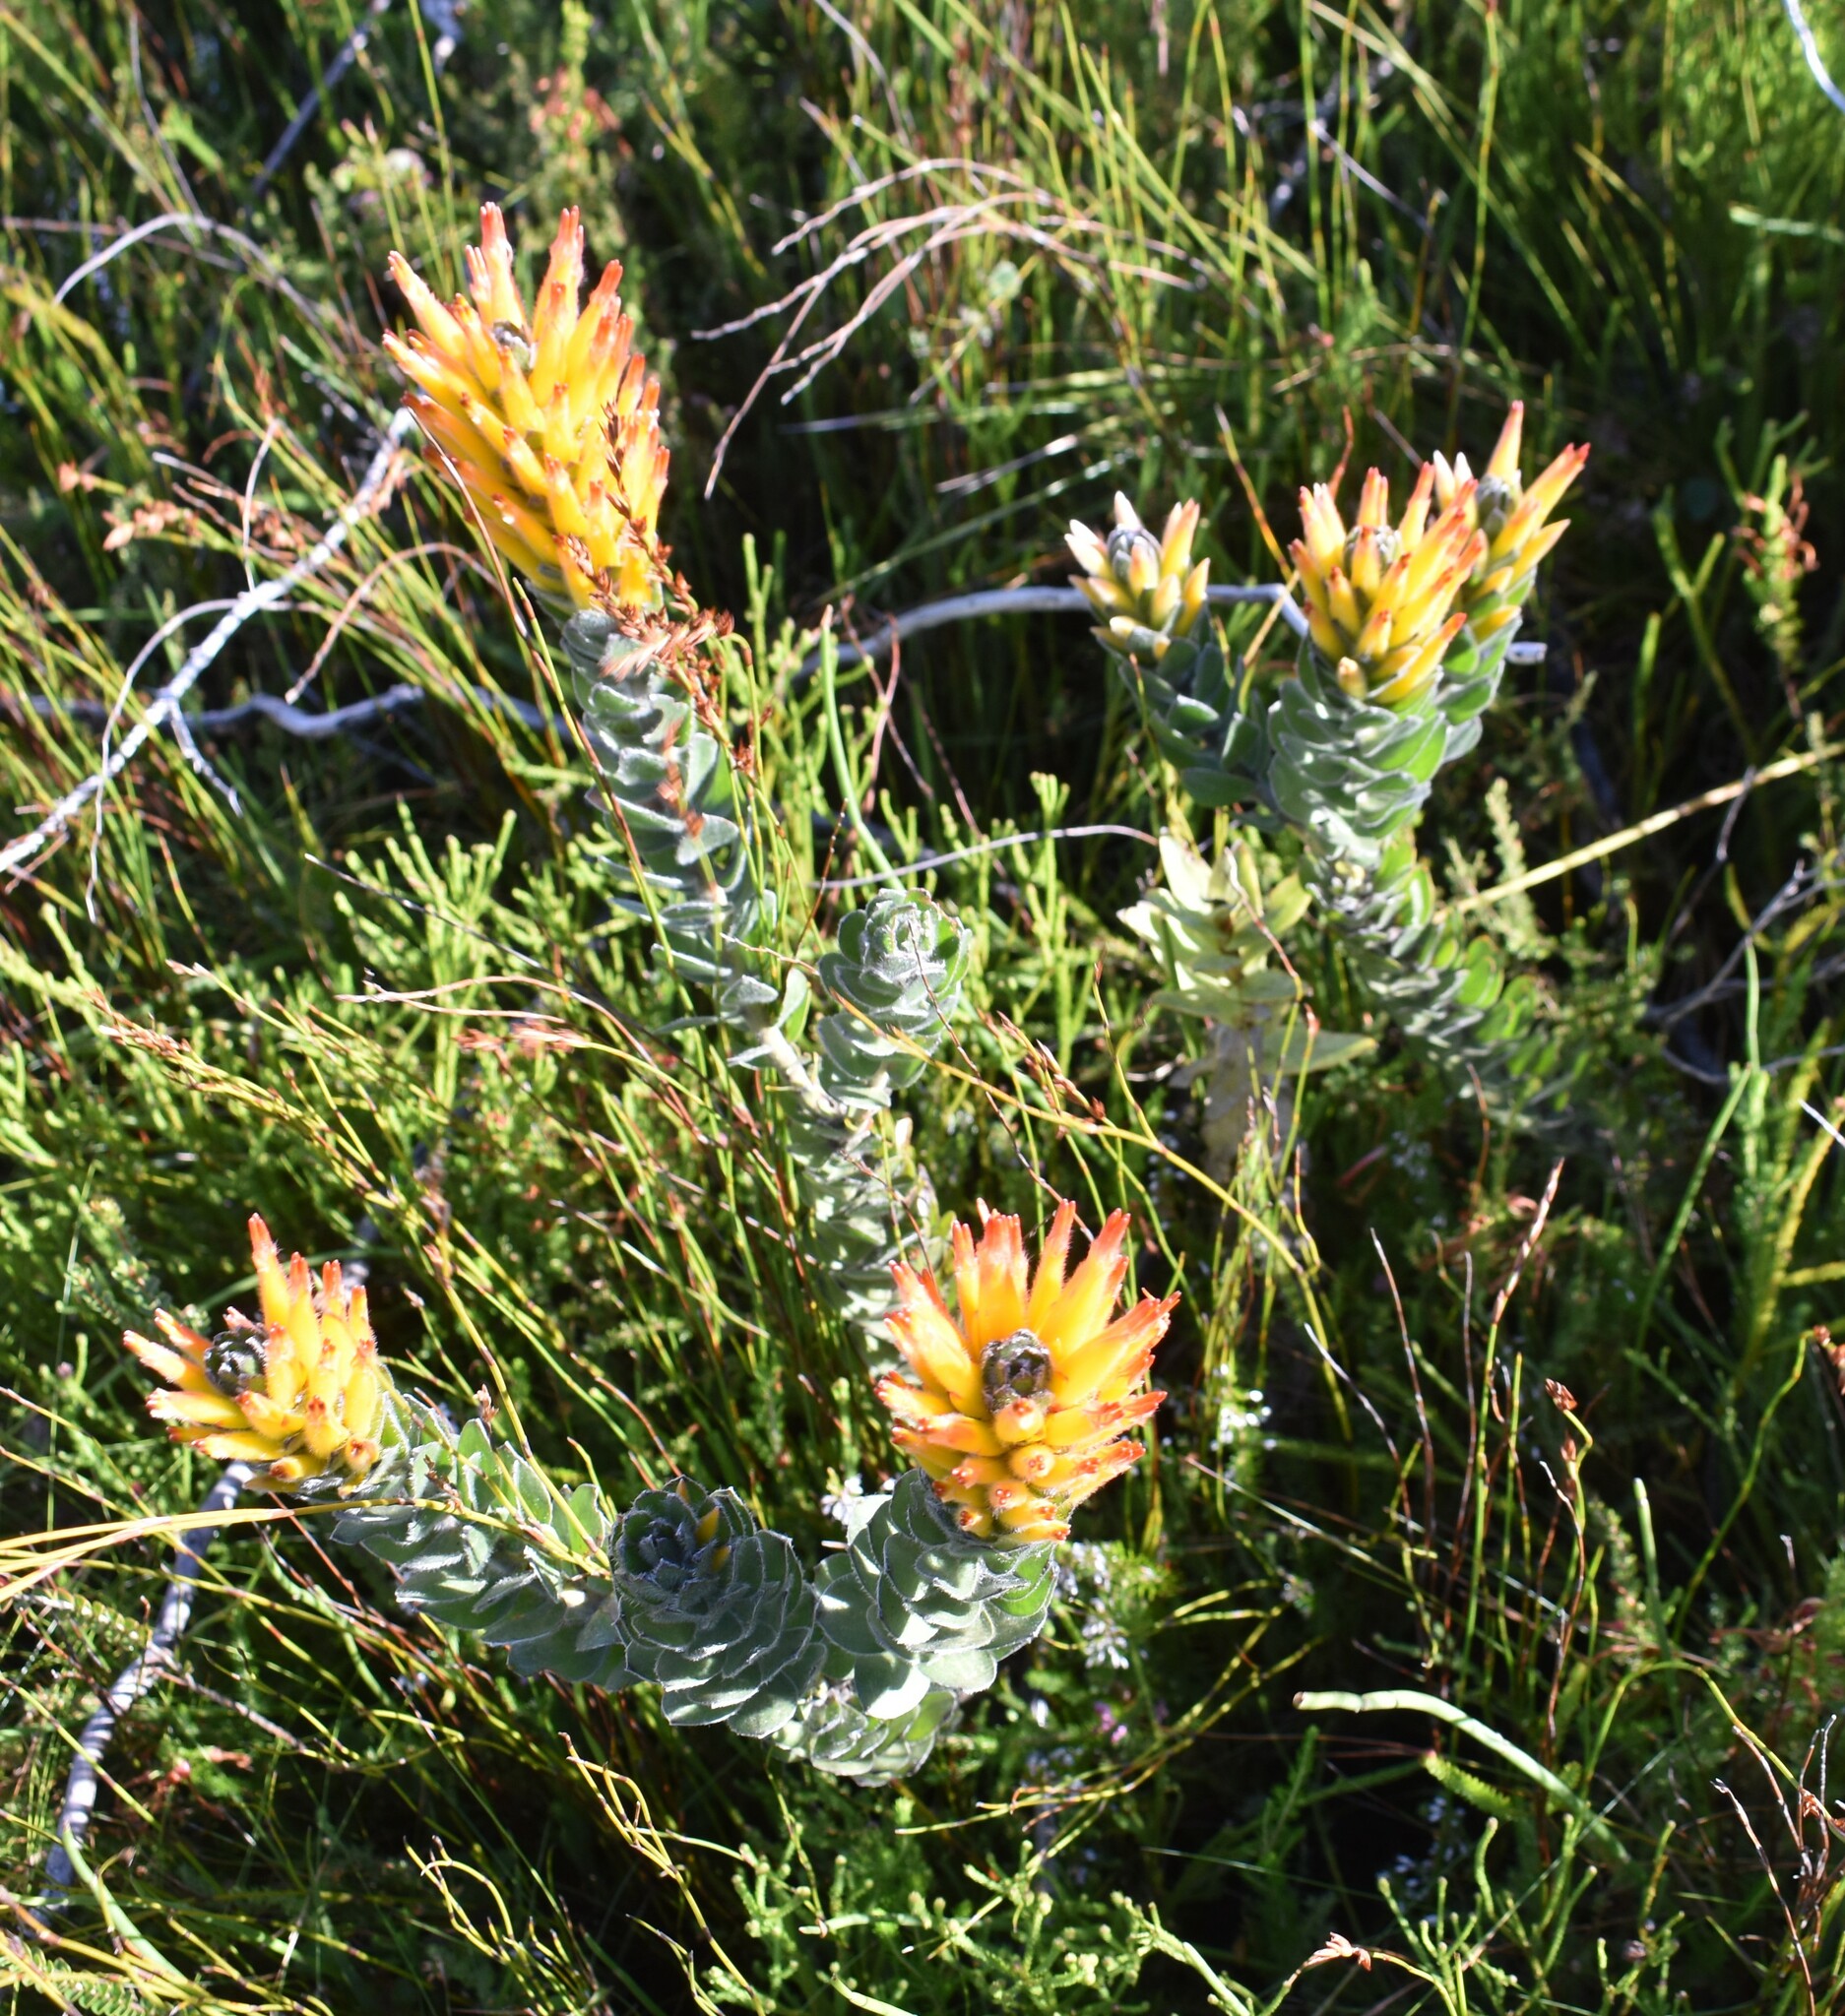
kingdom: Plantae
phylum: Tracheophyta
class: Magnoliopsida
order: Proteales
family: Proteaceae
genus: Mimetes
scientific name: Mimetes pauciflora
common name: Three-flowered pagoda
